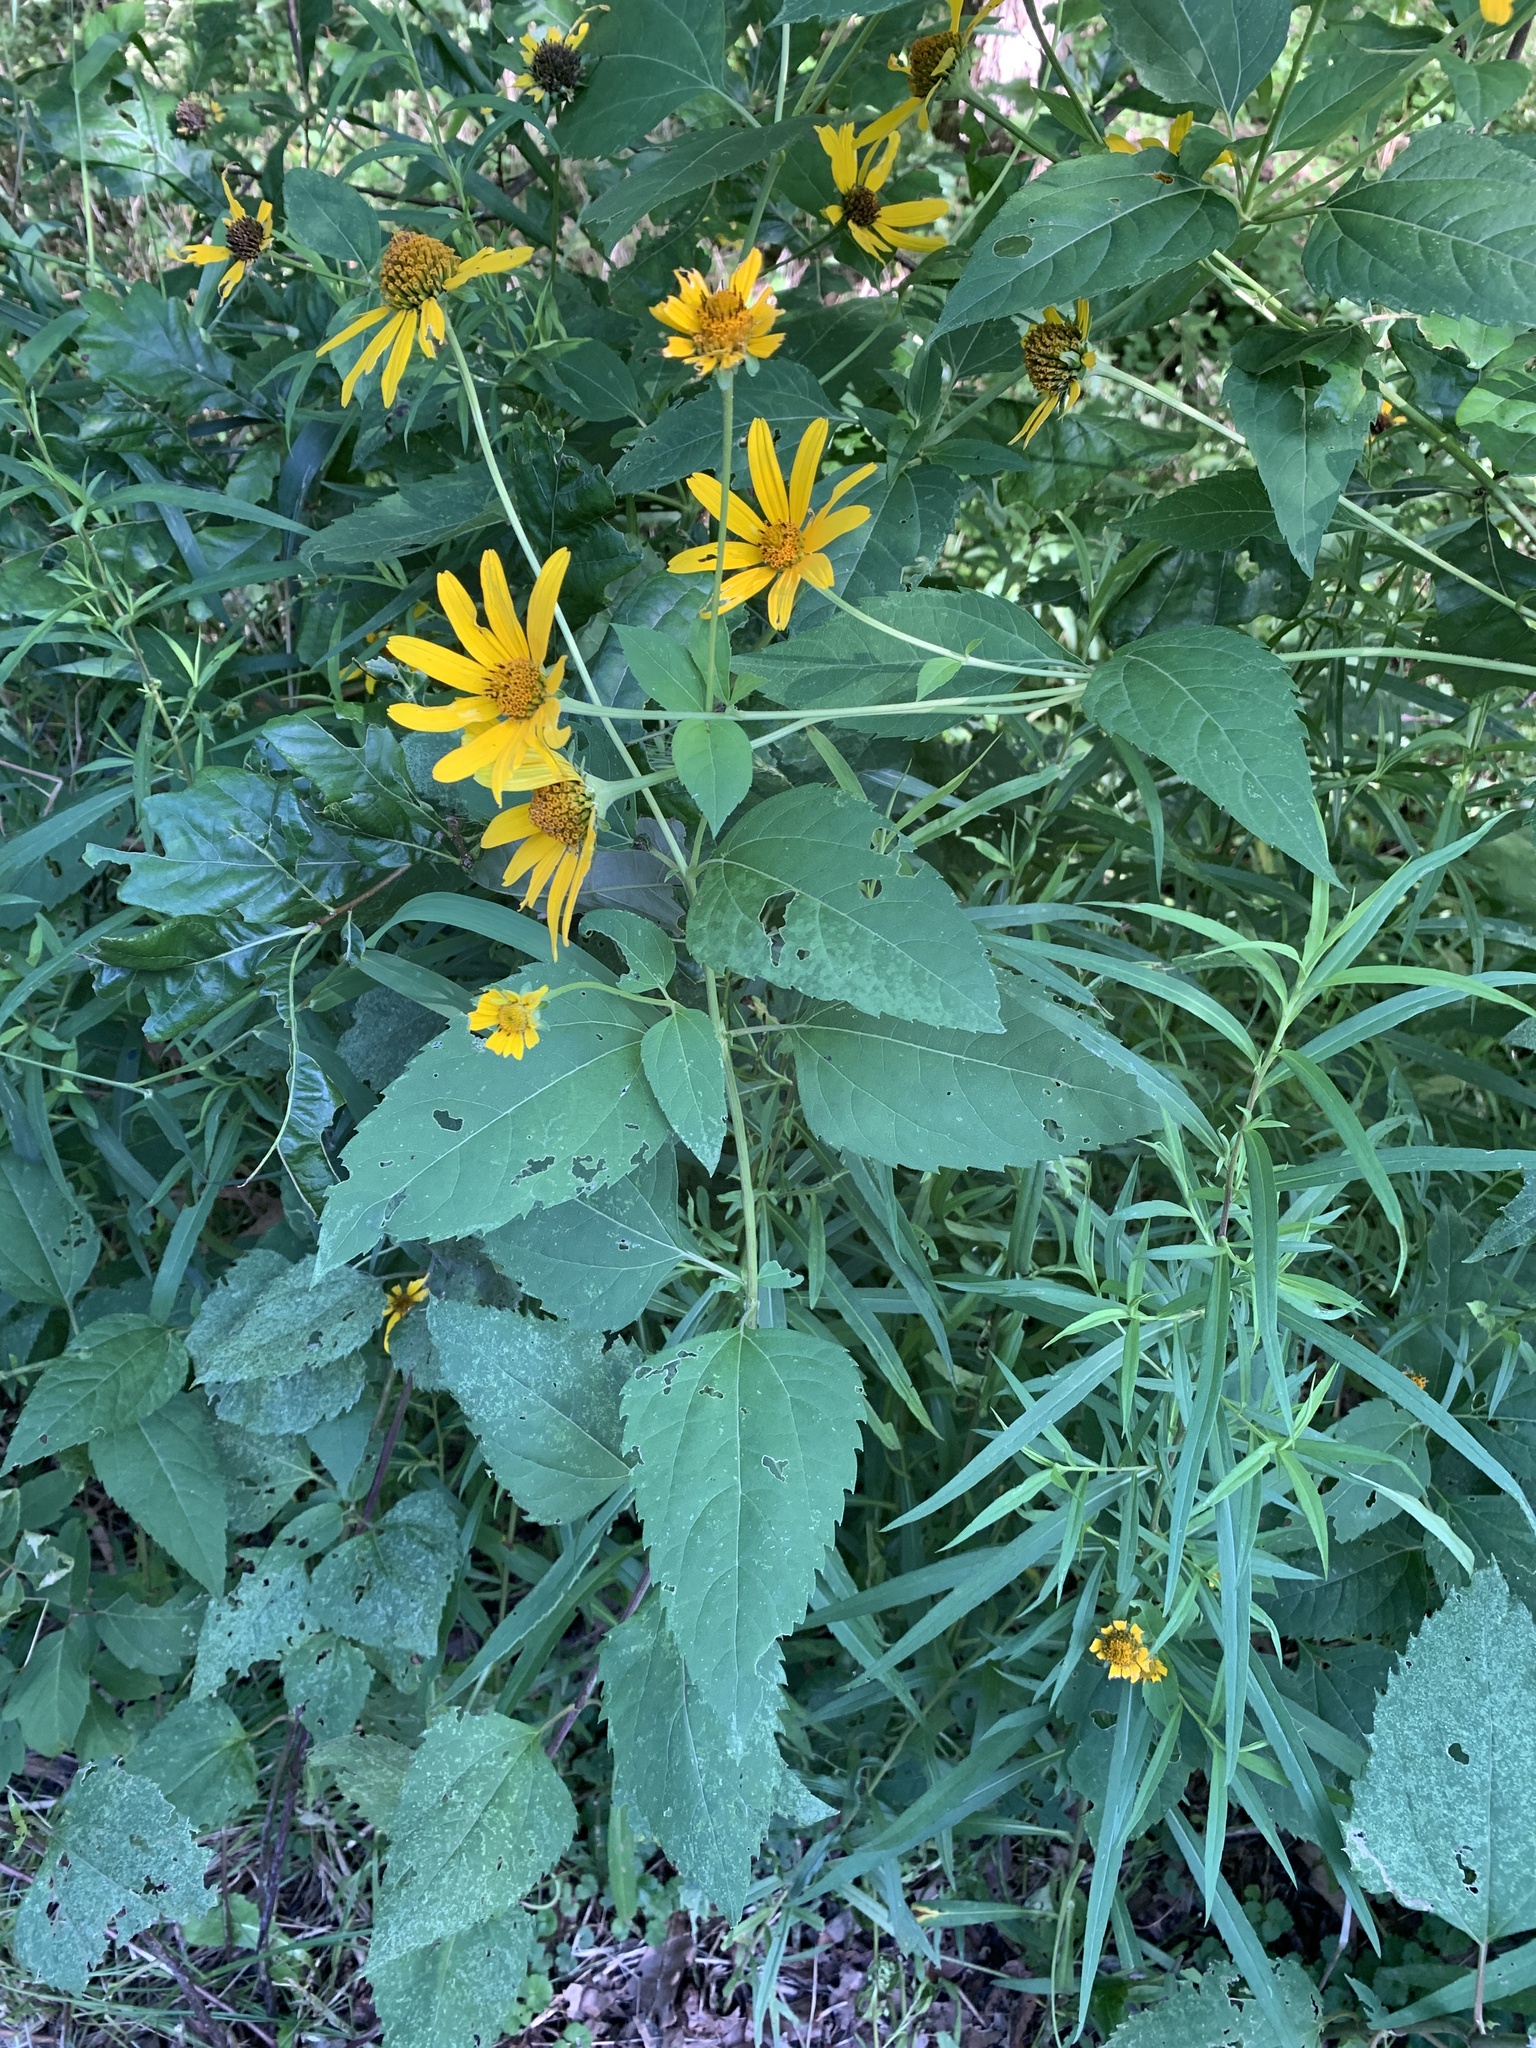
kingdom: Plantae
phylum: Tracheophyta
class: Magnoliopsida
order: Asterales
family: Asteraceae
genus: Helianthus
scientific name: Helianthus tuberosus
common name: Jerusalem artichoke
